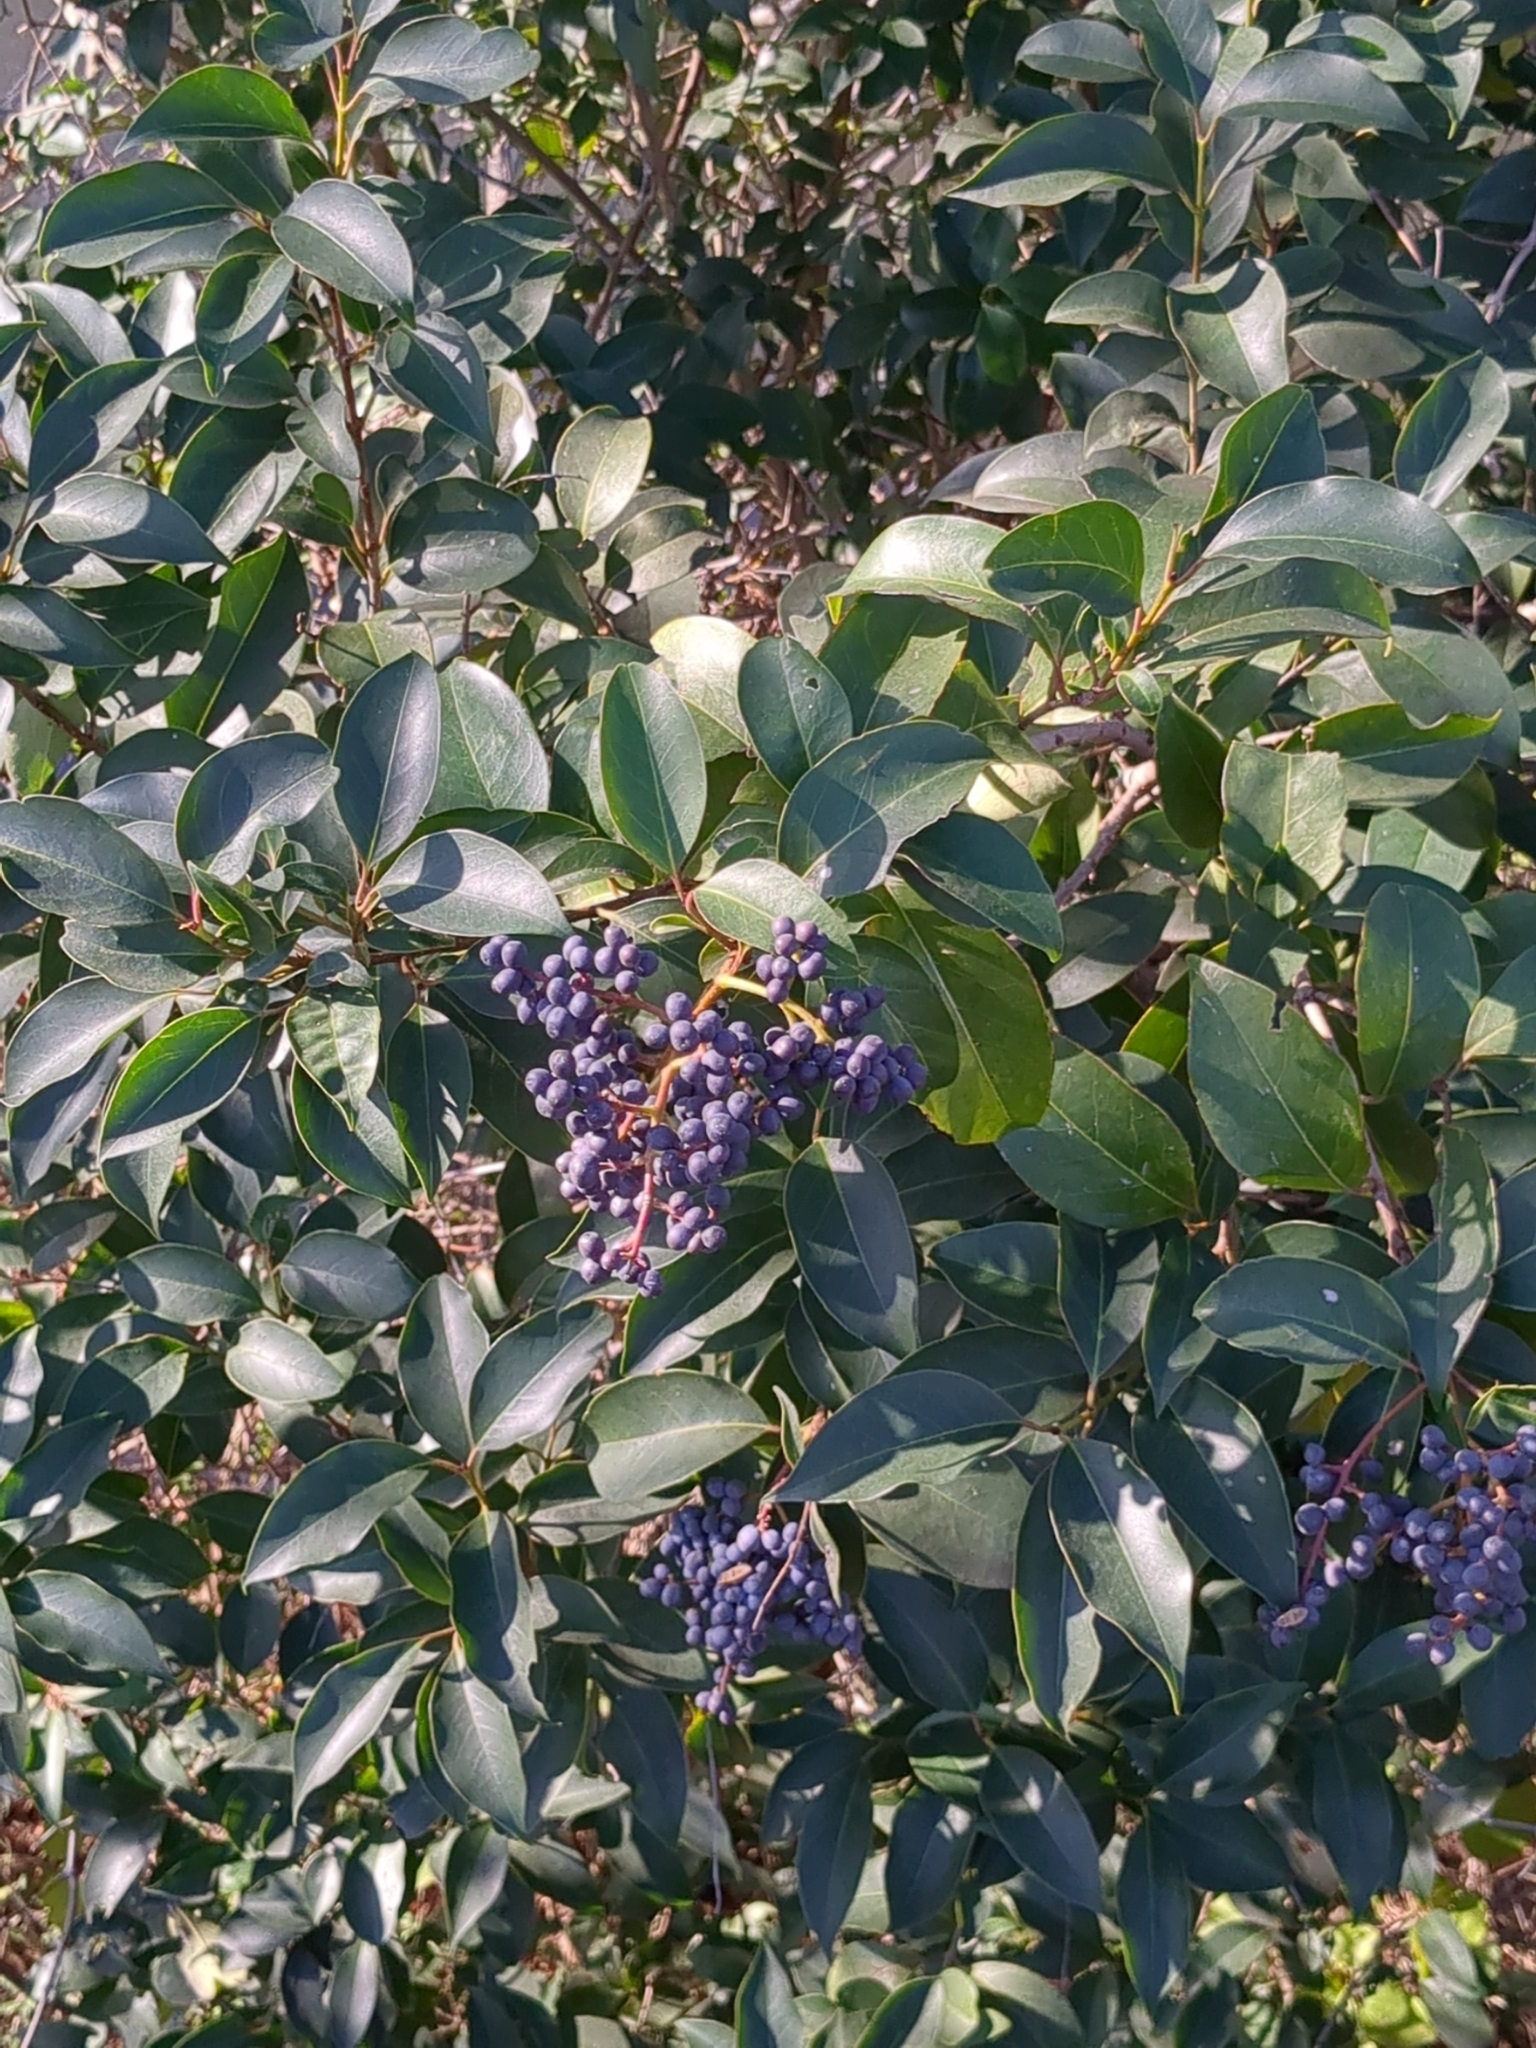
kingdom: Plantae
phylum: Tracheophyta
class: Magnoliopsida
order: Lamiales
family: Oleaceae
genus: Ligustrum
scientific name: Ligustrum lucidum
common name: Glossy privet
